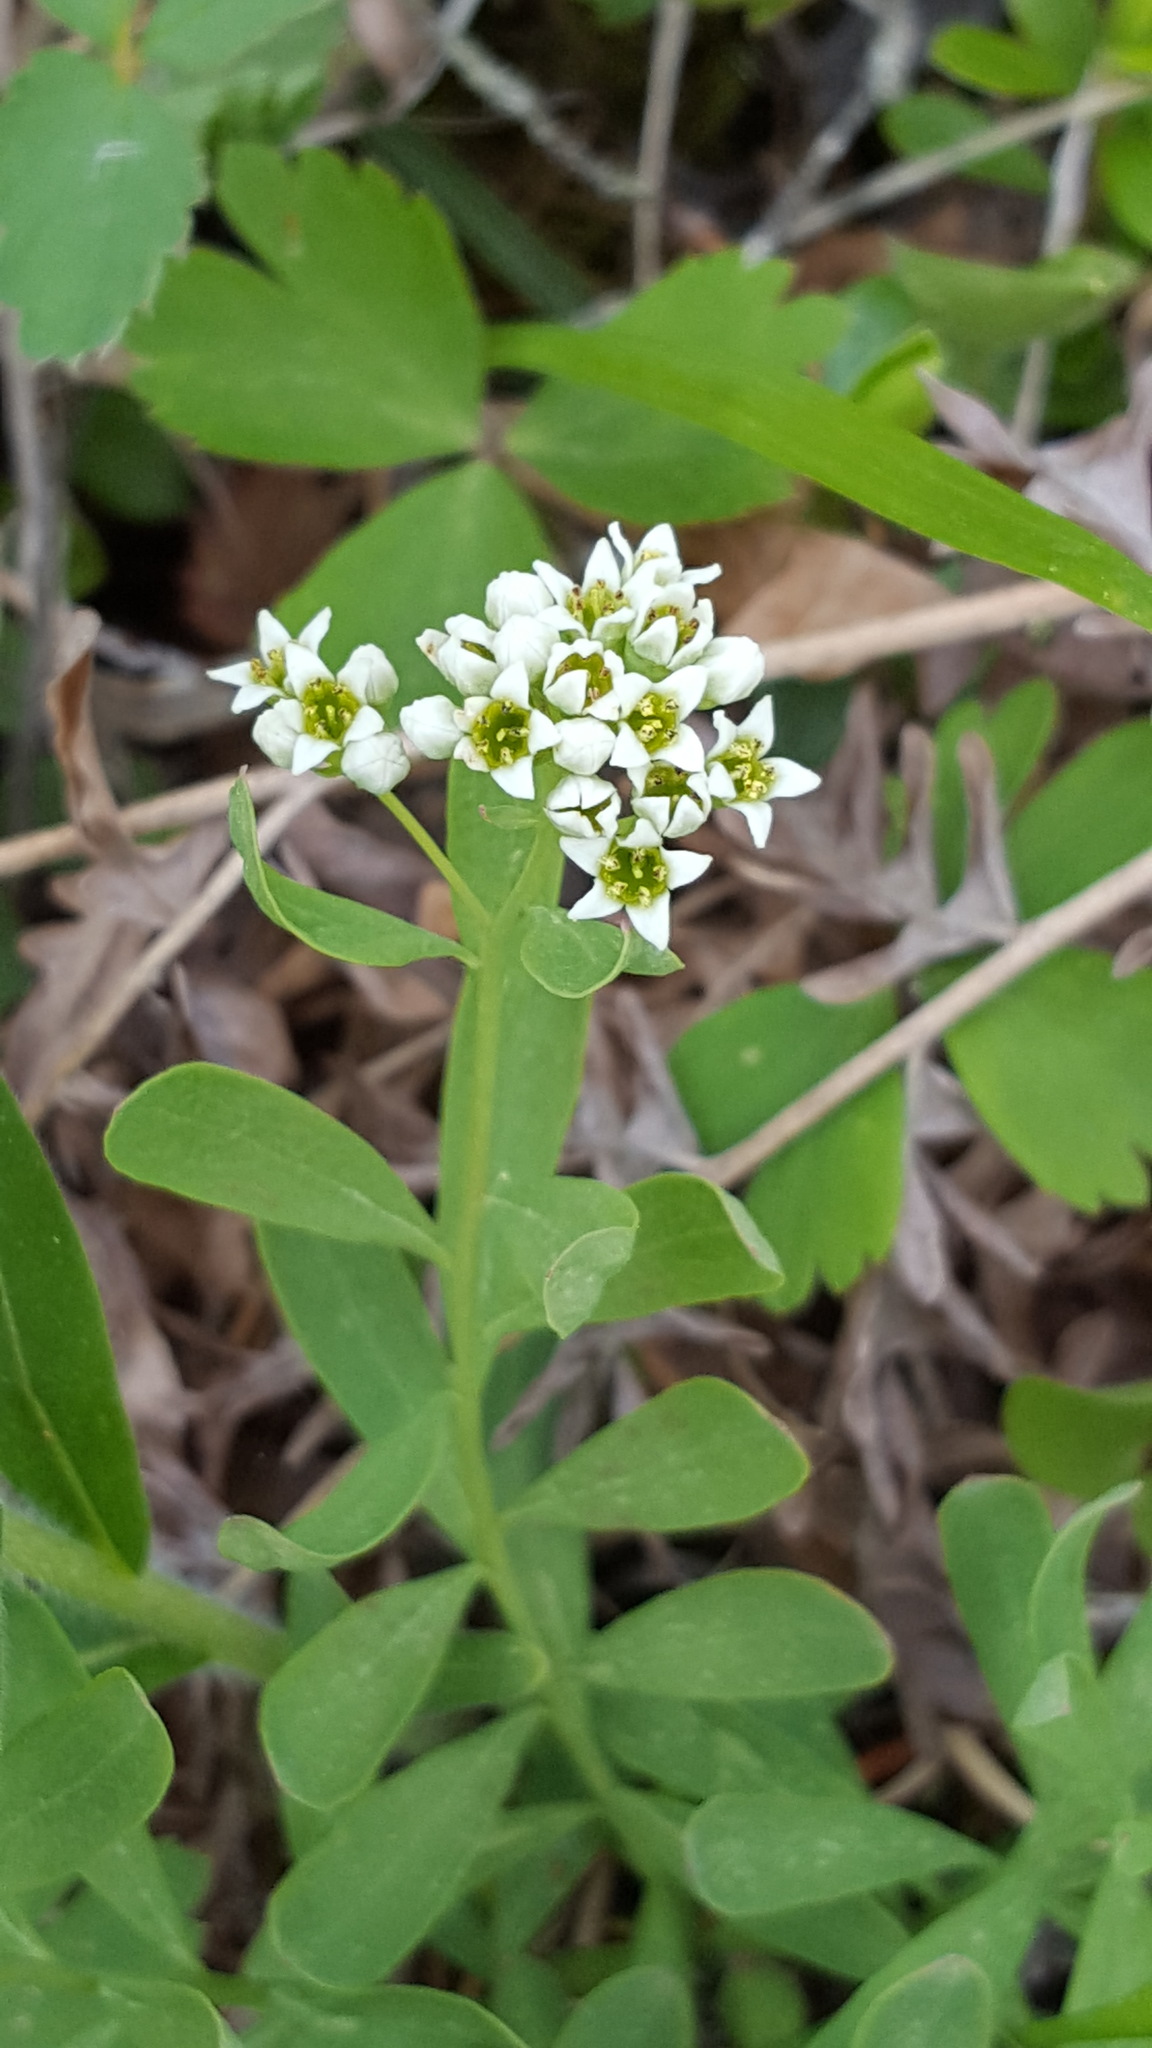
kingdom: Plantae
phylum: Tracheophyta
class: Magnoliopsida
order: Santalales
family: Comandraceae
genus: Comandra
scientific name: Comandra umbellata
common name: Bastard toadflax
